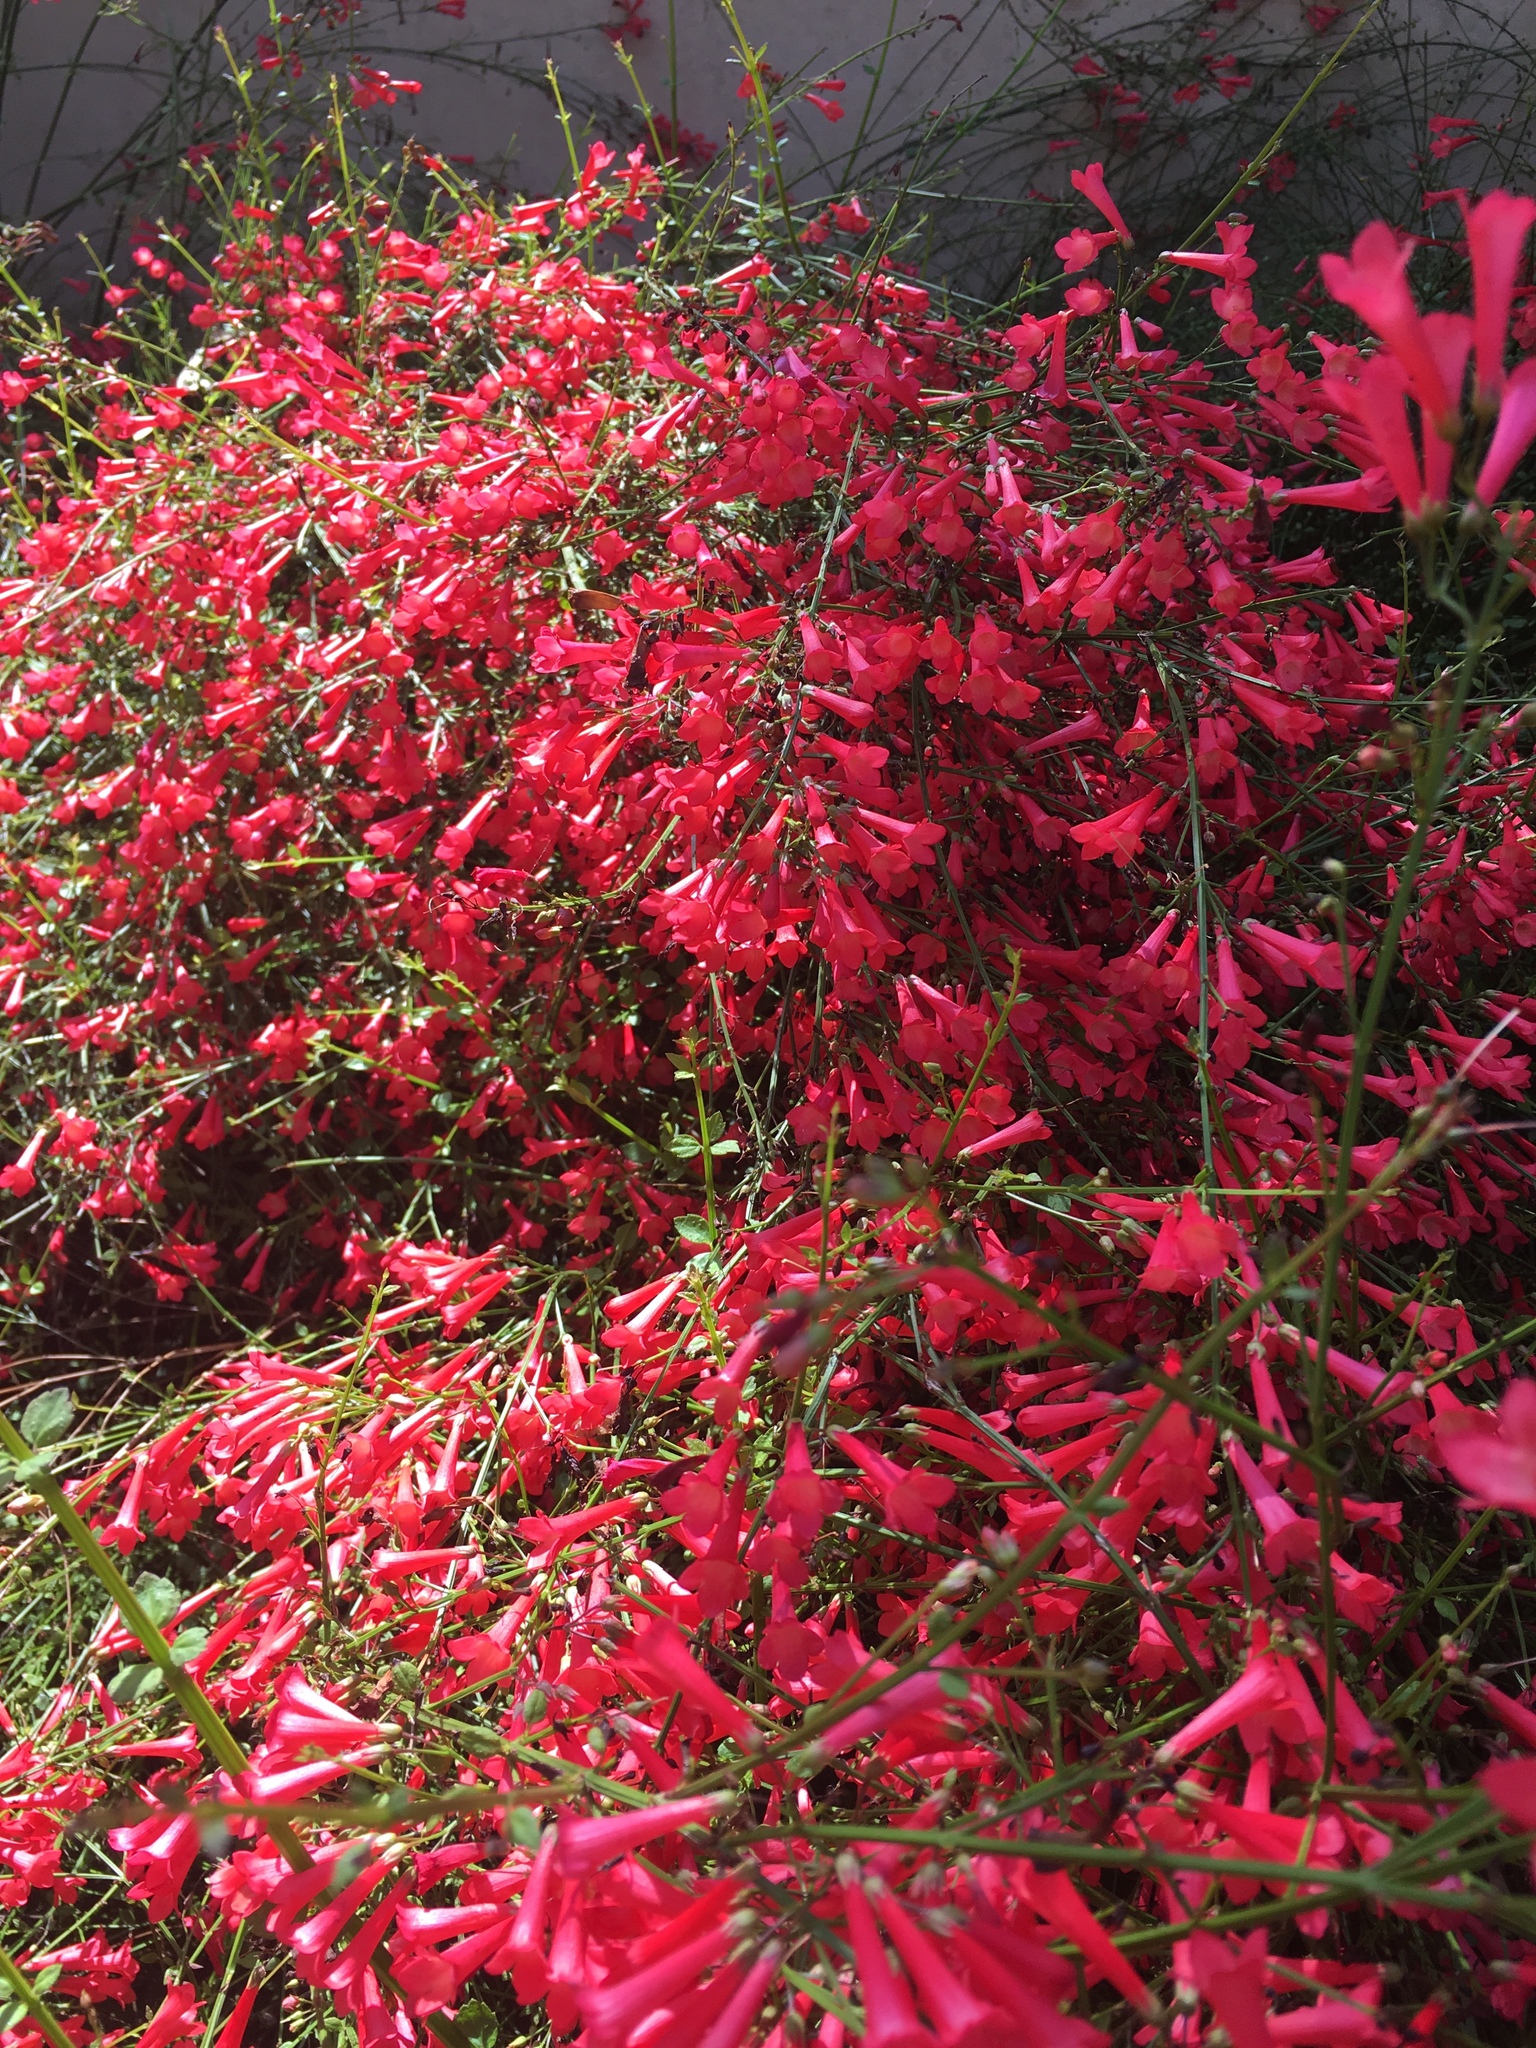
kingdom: Plantae
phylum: Tracheophyta
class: Magnoliopsida
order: Lamiales
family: Plantaginaceae
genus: Russelia
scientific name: Russelia equisetiformis
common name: Fountainbush
